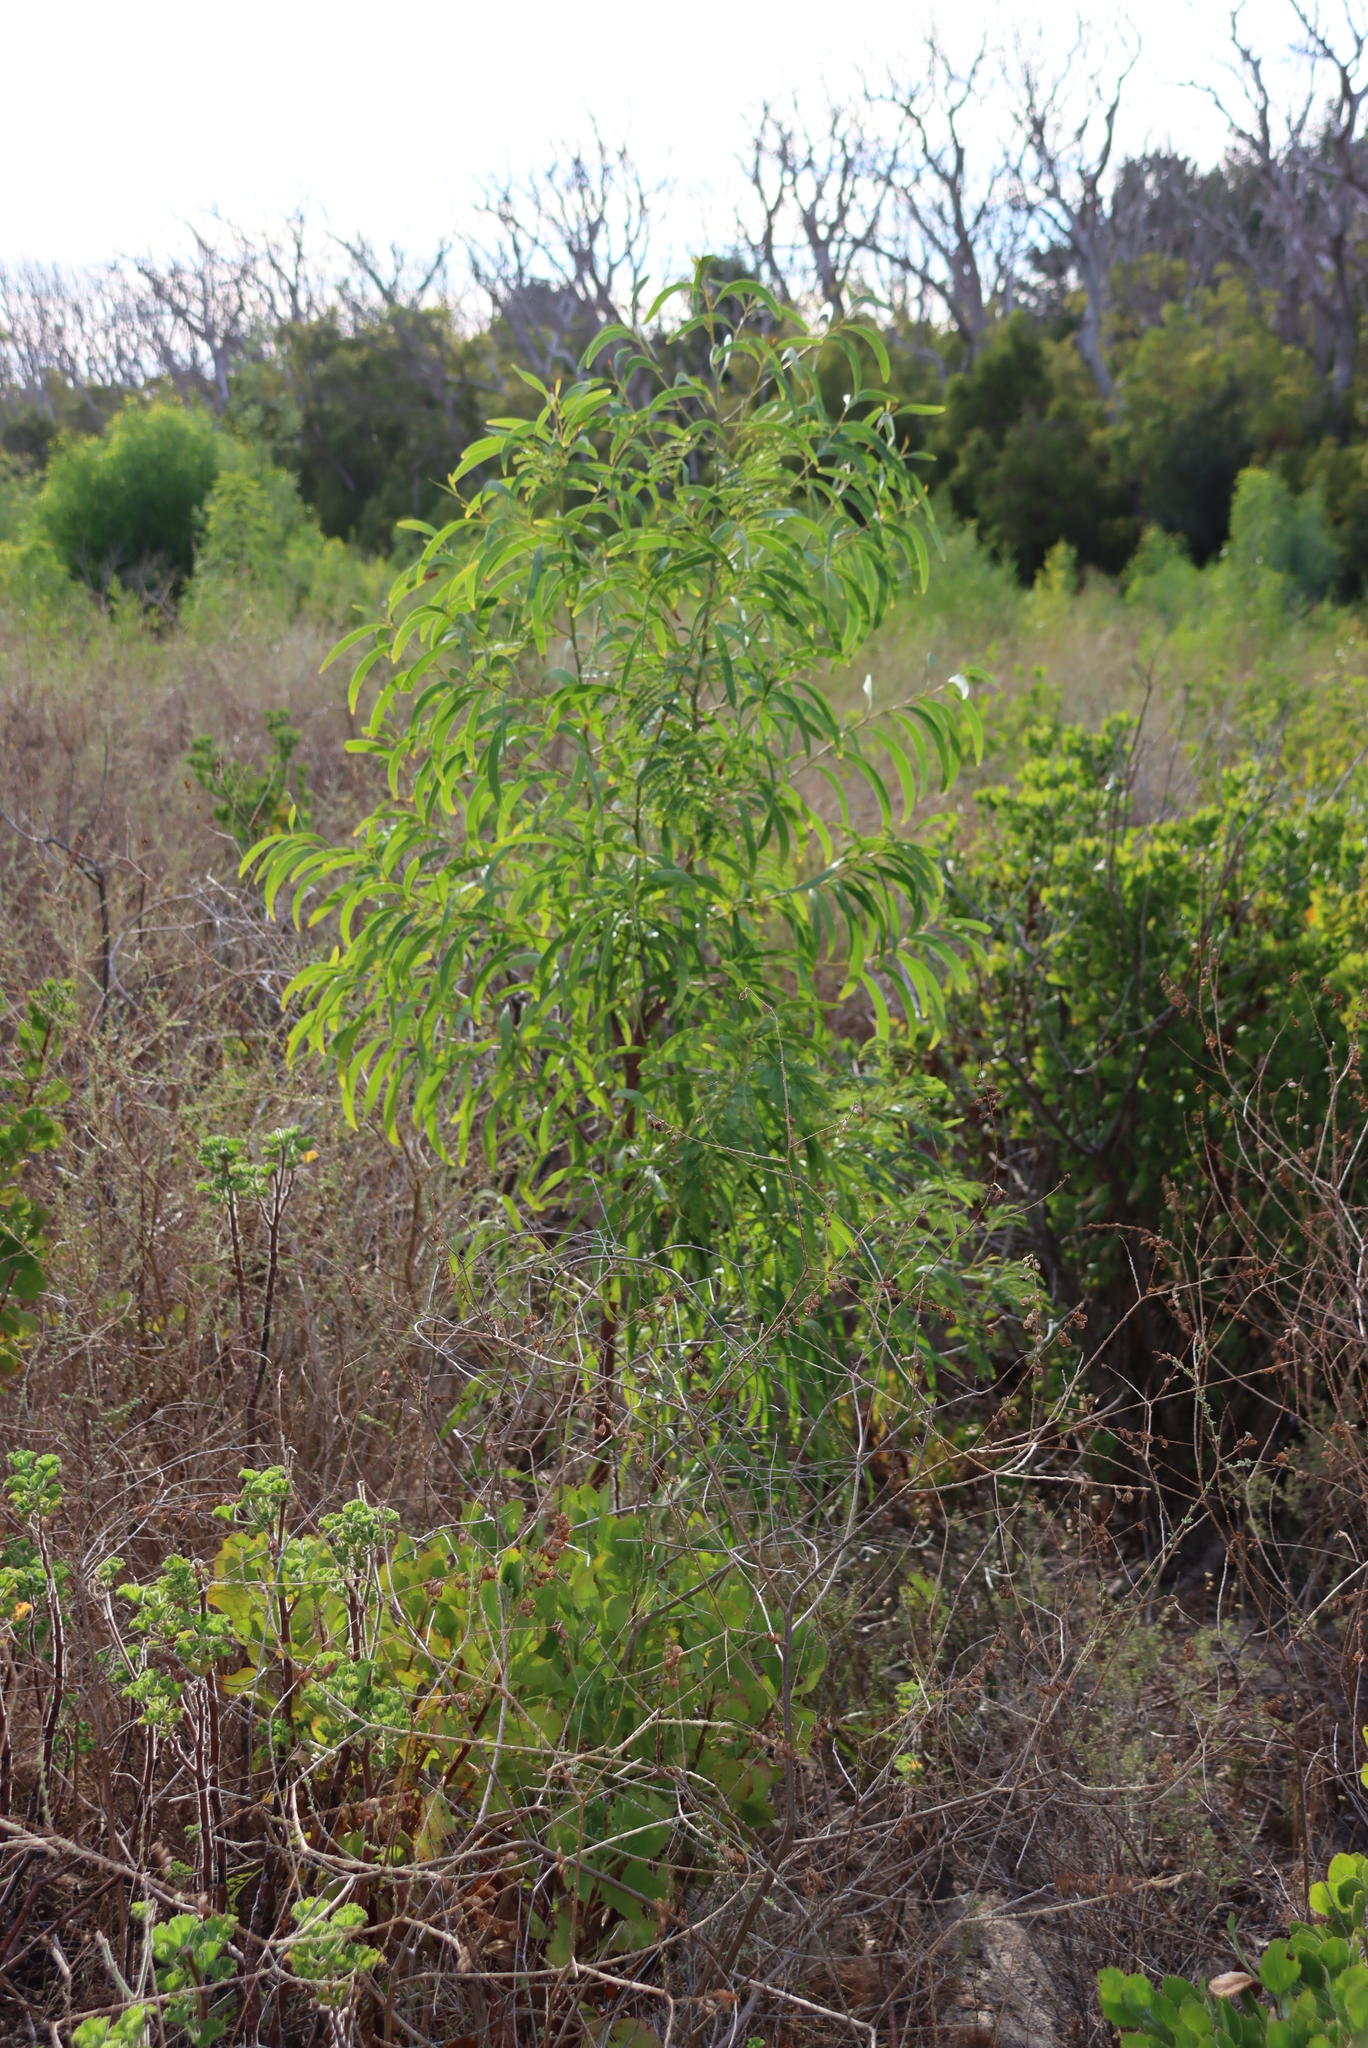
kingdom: Plantae
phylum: Tracheophyta
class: Magnoliopsida
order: Fabales
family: Fabaceae
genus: Acacia
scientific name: Acacia implexa
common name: Black wattle
